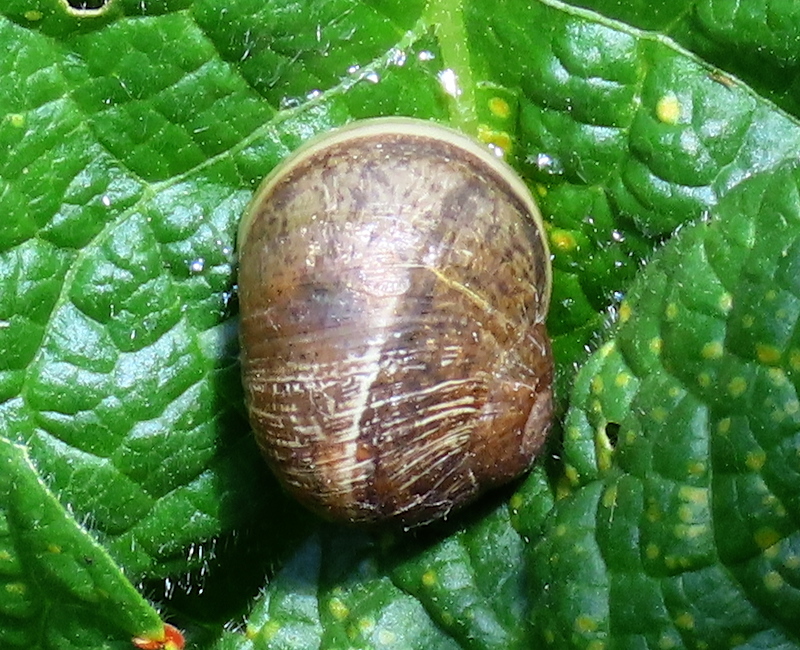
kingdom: Animalia
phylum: Mollusca
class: Gastropoda
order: Stylommatophora
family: Helicidae
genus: Cornu
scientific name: Cornu aspersum
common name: Brown garden snail
